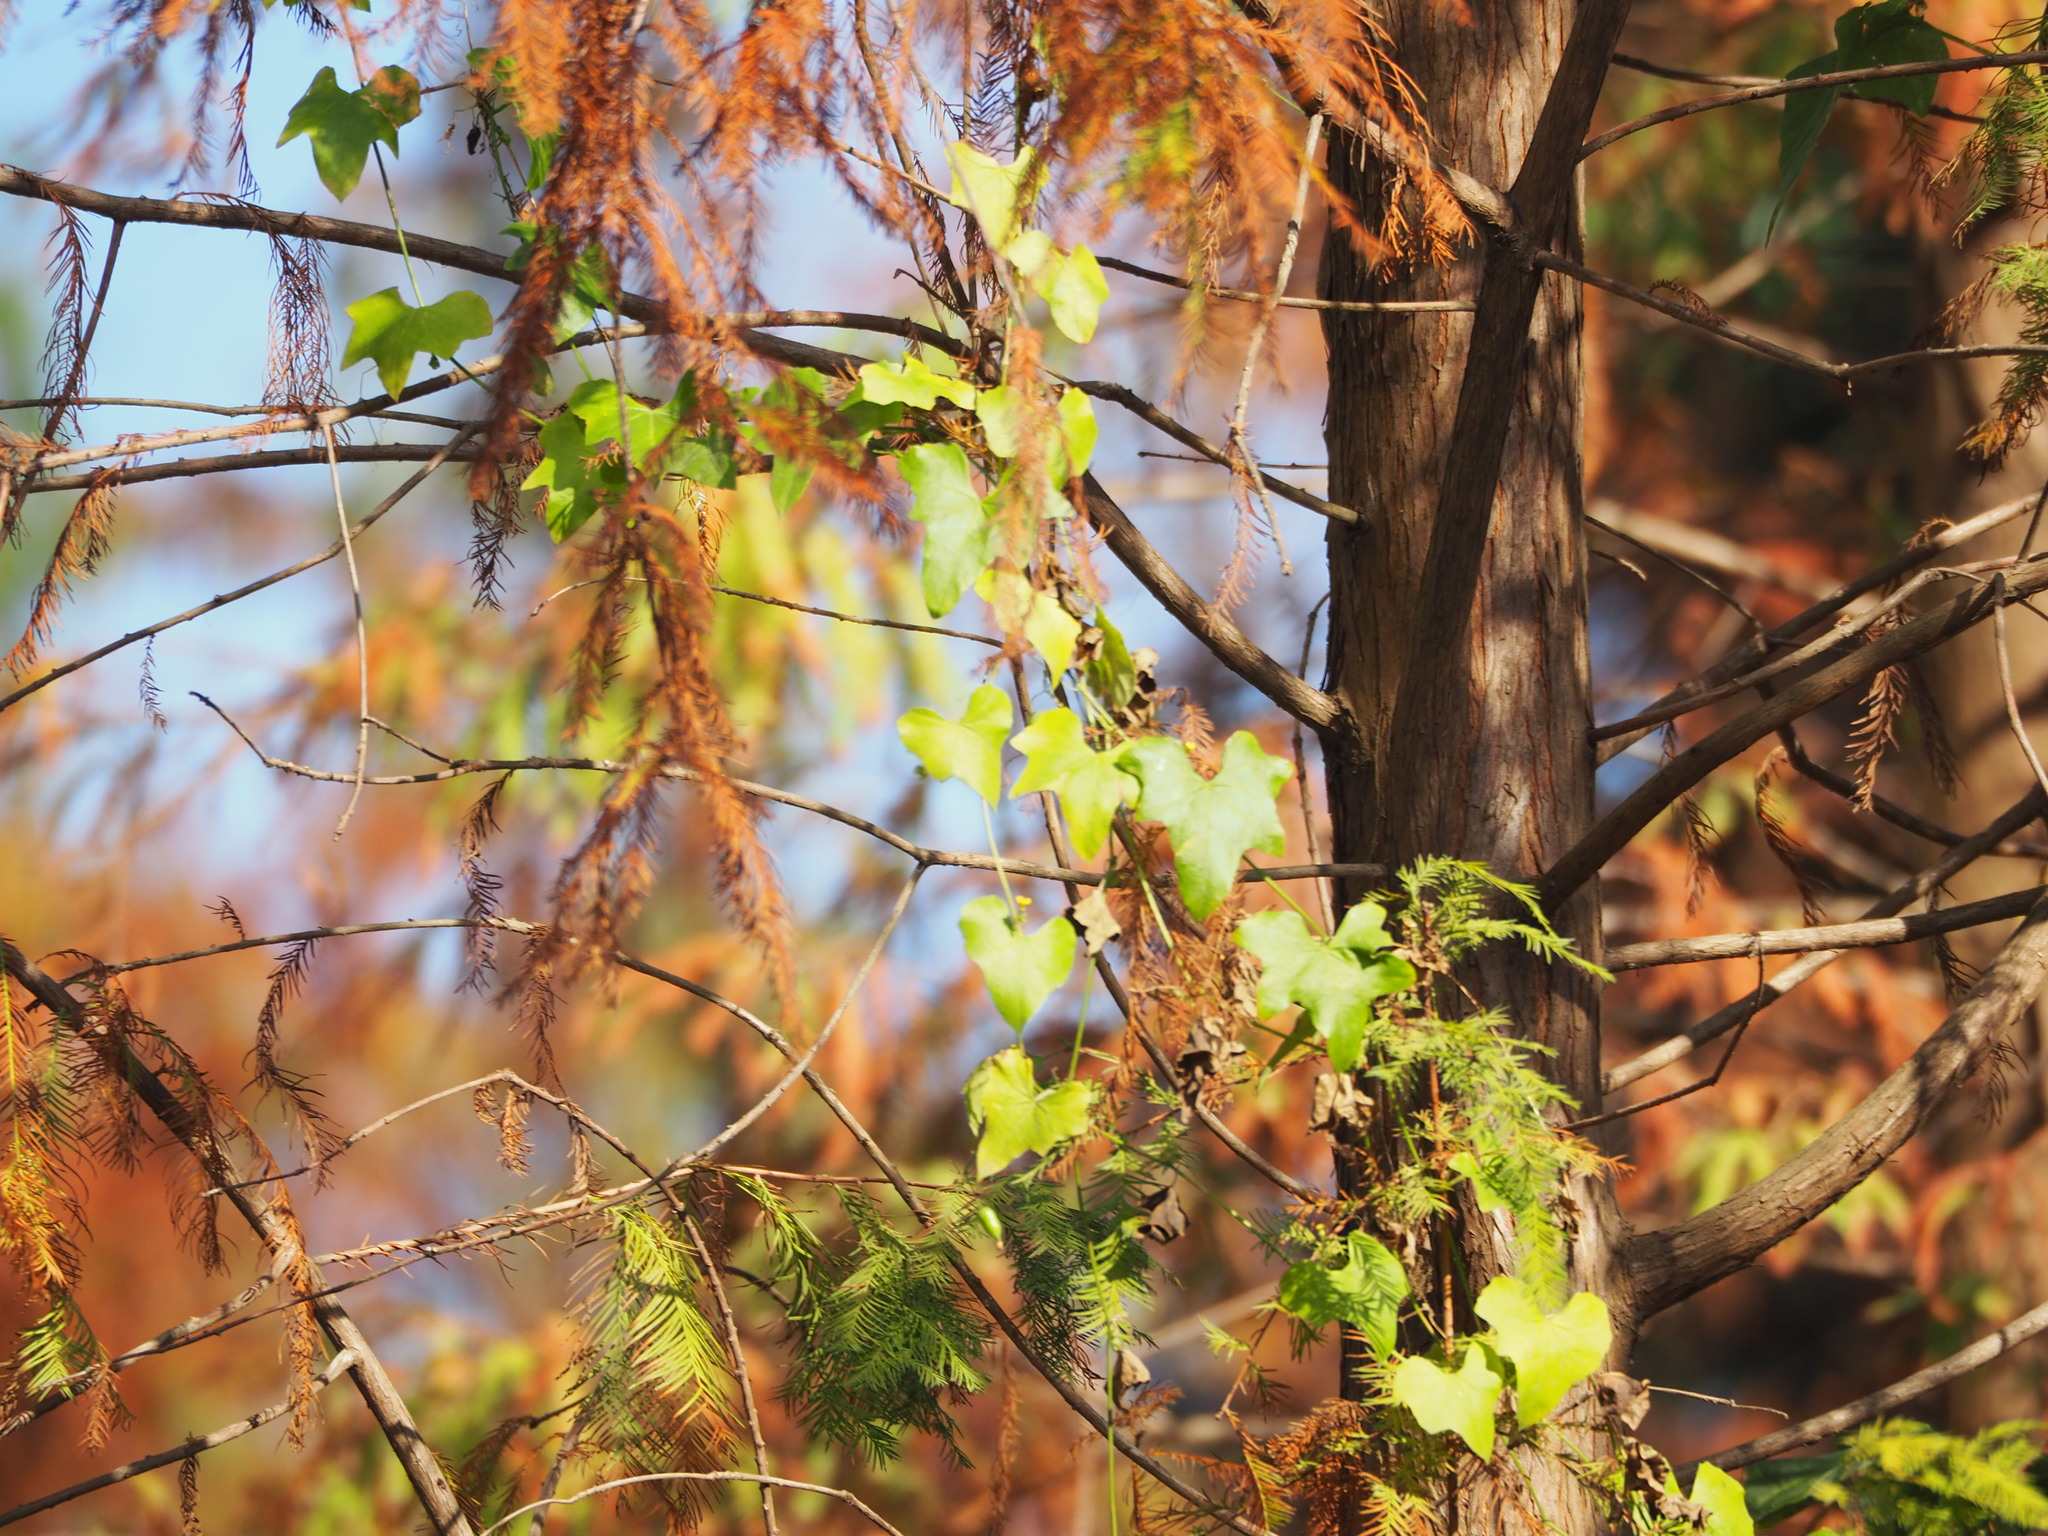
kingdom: Plantae
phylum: Tracheophyta
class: Magnoliopsida
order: Cucurbitales
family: Cucurbitaceae
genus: Melothria
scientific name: Melothria pendula
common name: Creeping-cucumber
